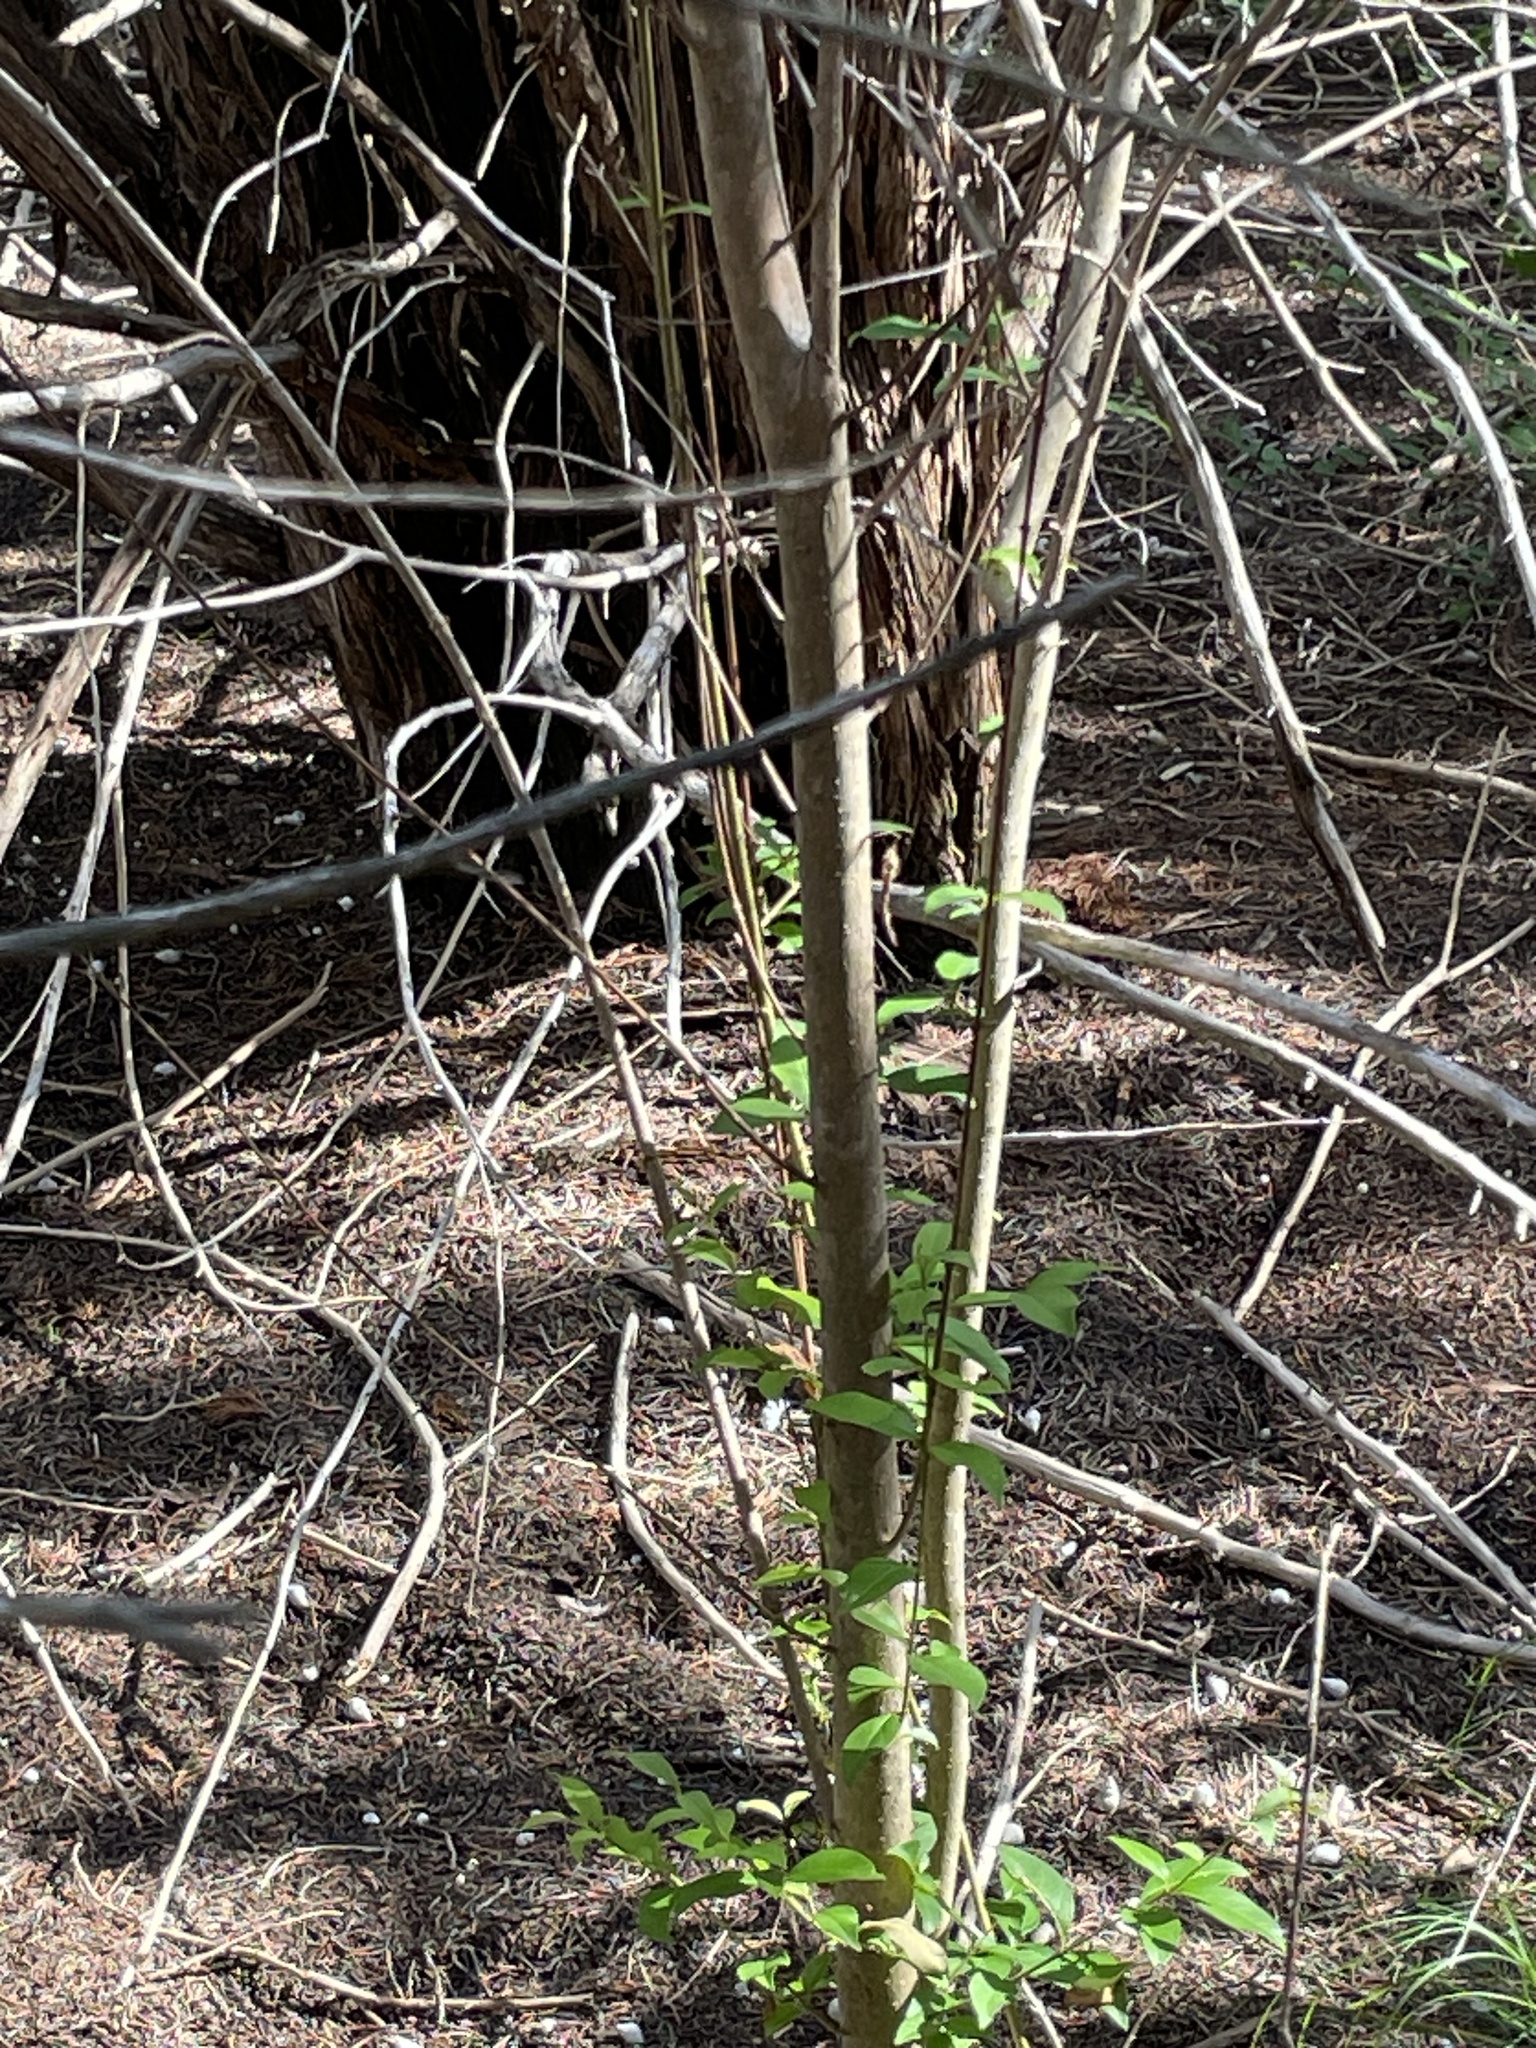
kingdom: Plantae
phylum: Tracheophyta
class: Magnoliopsida
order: Lamiales
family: Oleaceae
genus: Ligustrum
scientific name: Ligustrum lucidum
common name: Glossy privet
